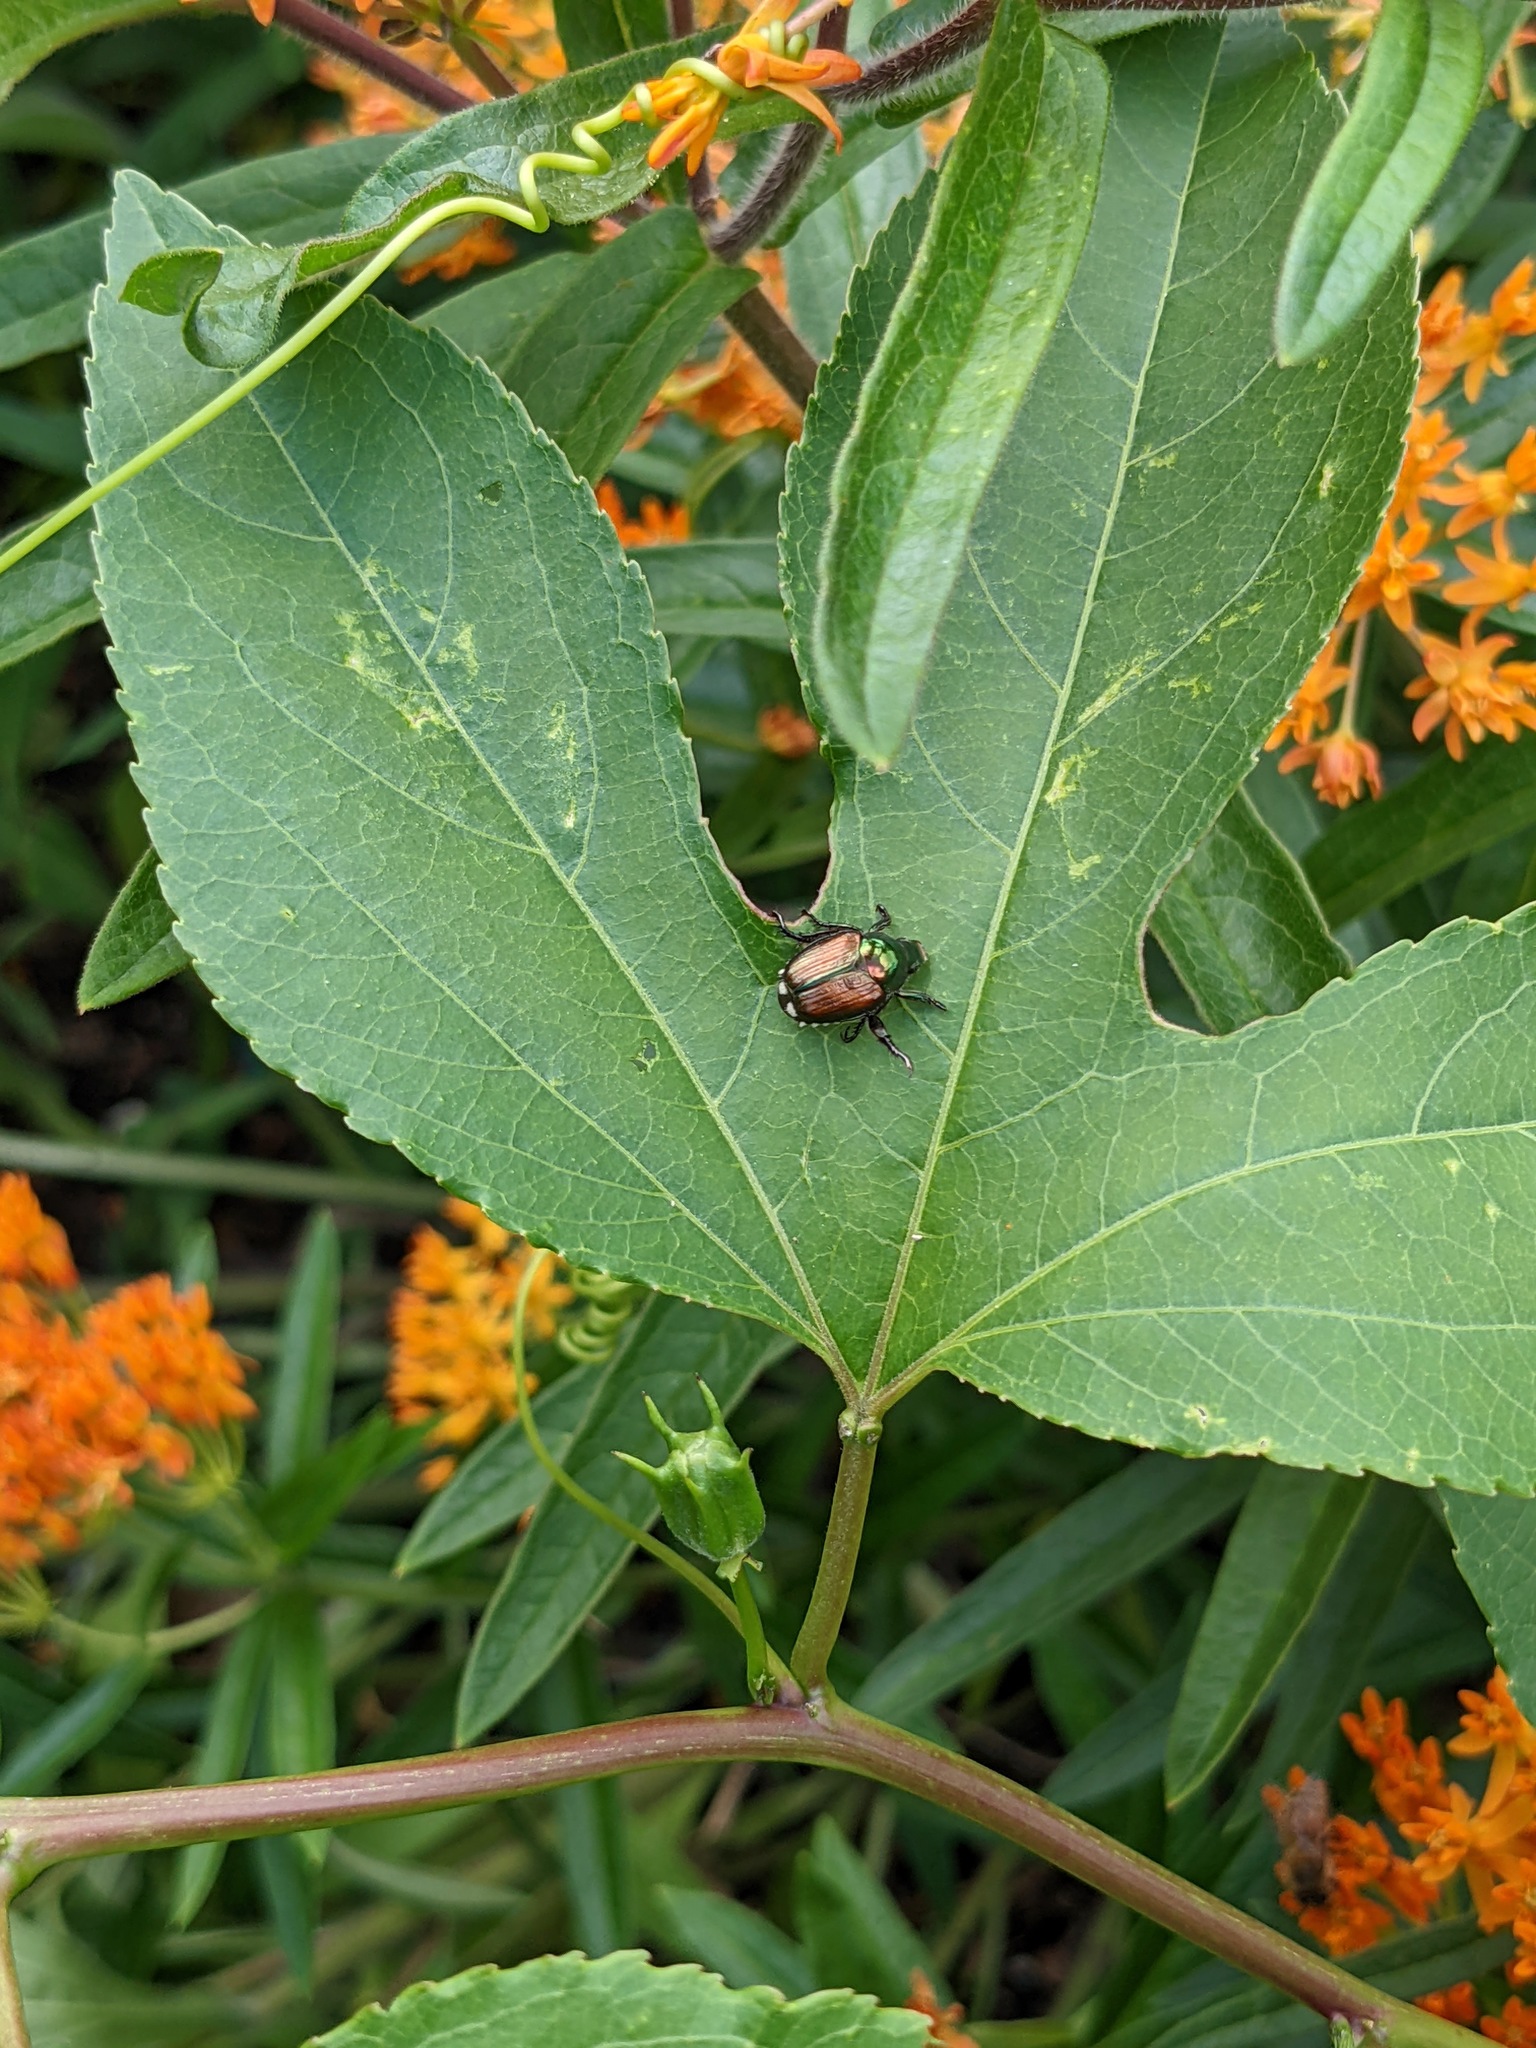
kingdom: Animalia
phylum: Arthropoda
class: Insecta
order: Coleoptera
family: Scarabaeidae
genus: Popillia
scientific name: Popillia japonica
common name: Japanese beetle
